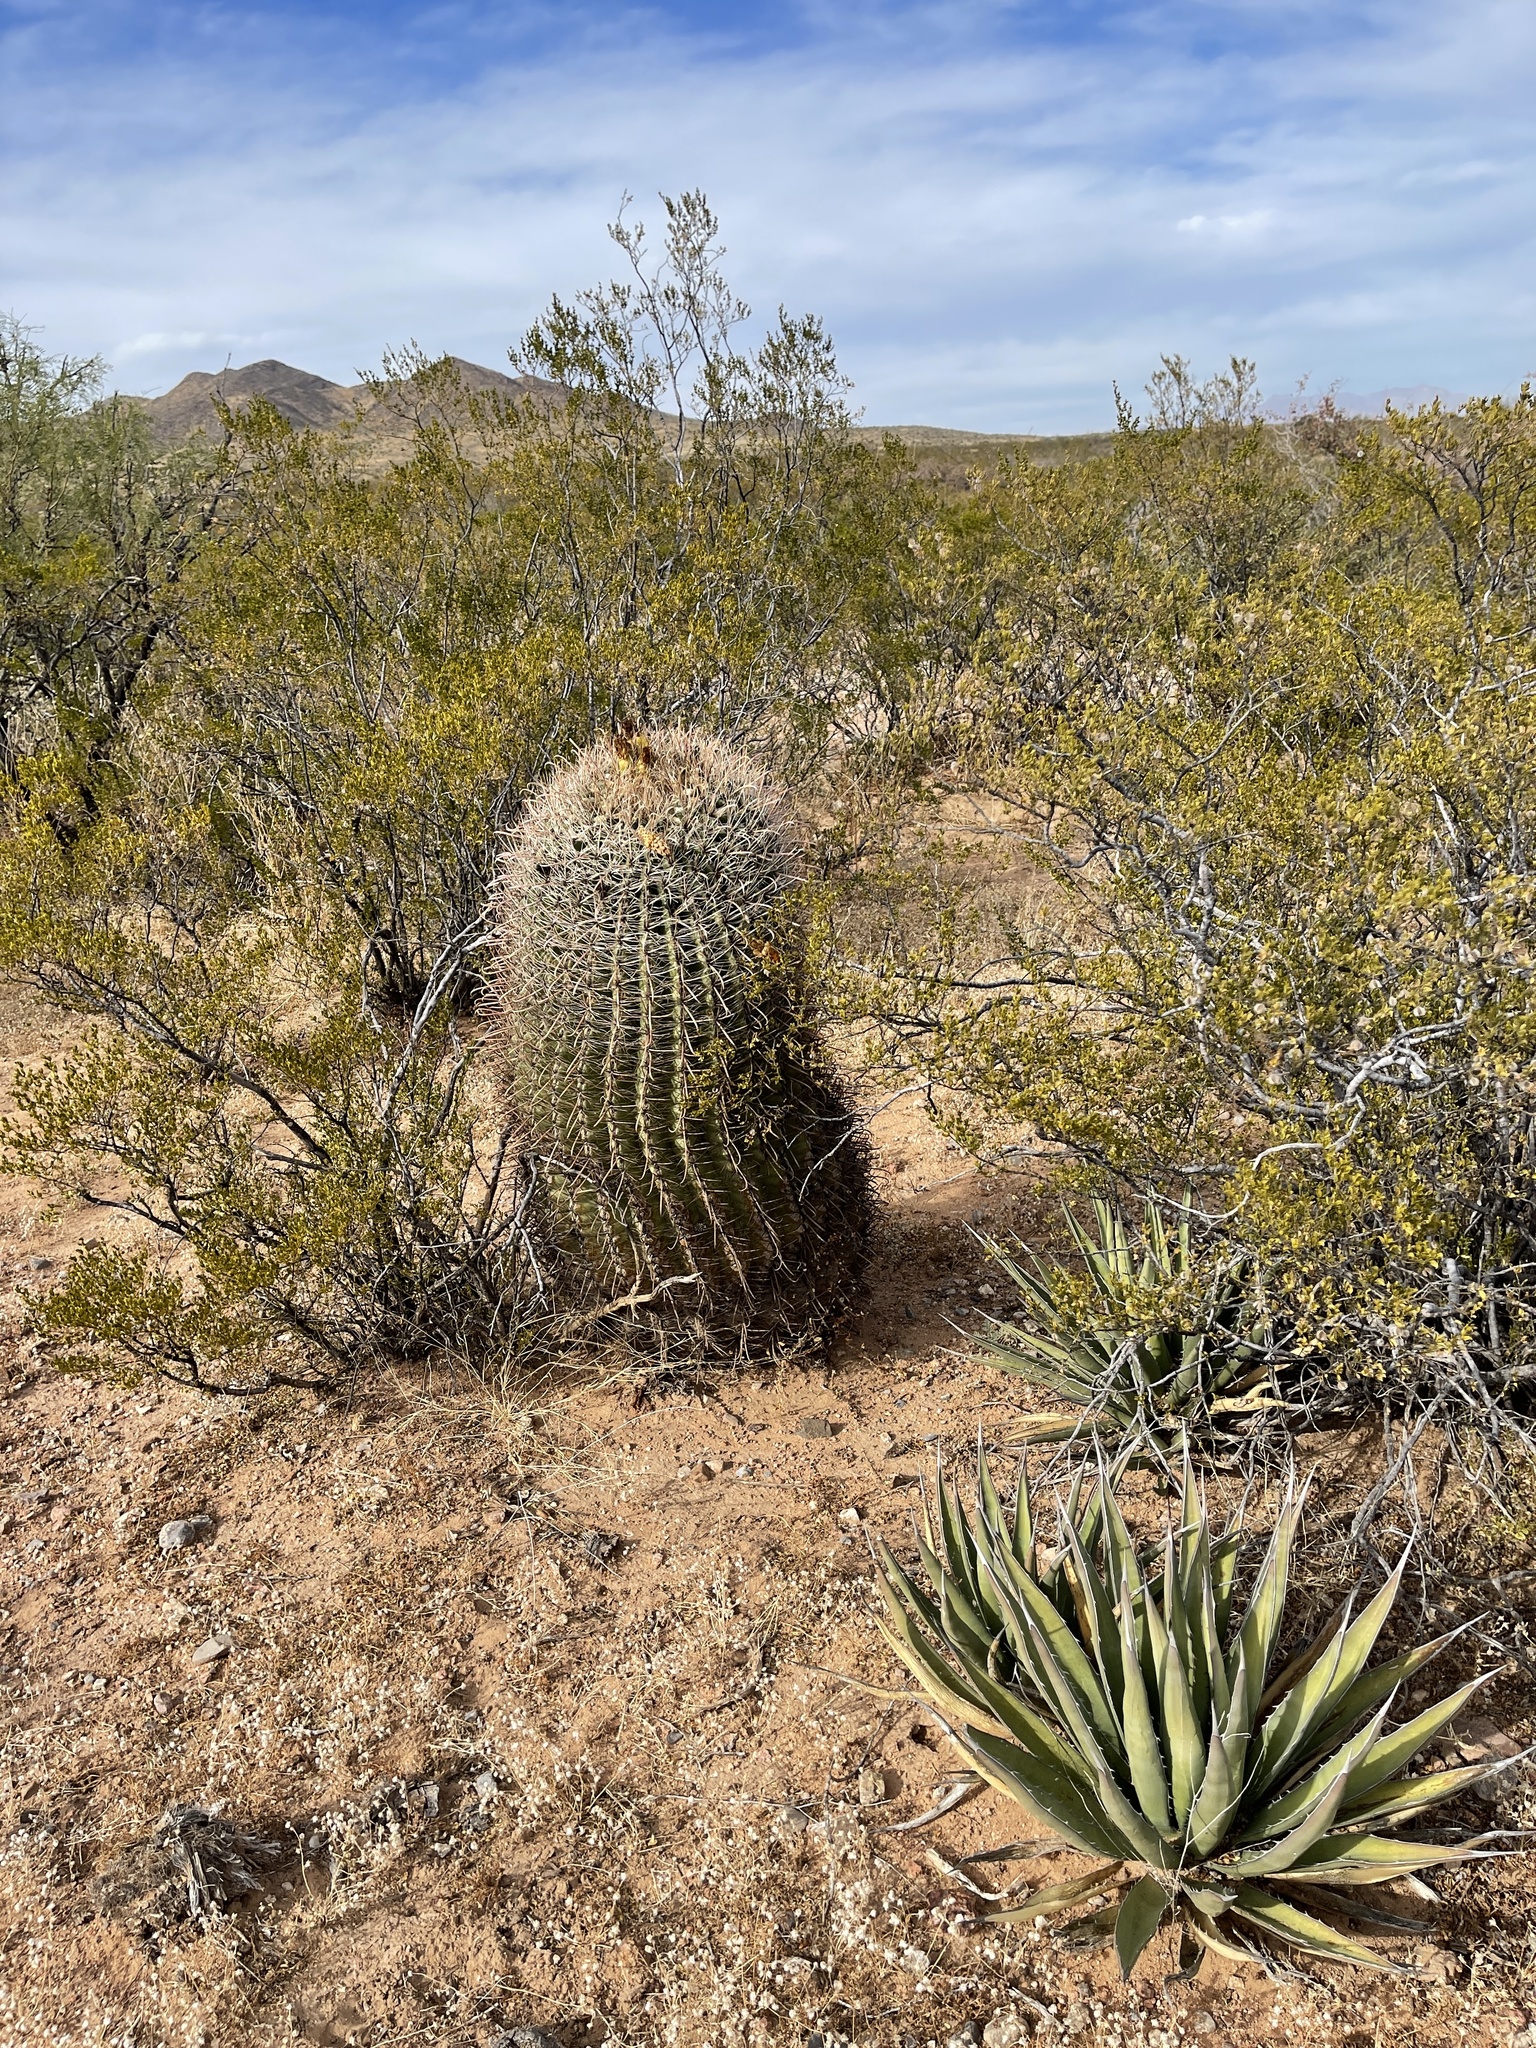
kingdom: Plantae
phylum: Tracheophyta
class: Magnoliopsida
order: Caryophyllales
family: Cactaceae
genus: Ferocactus
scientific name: Ferocactus wislizeni
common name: Candy barrel cactus
